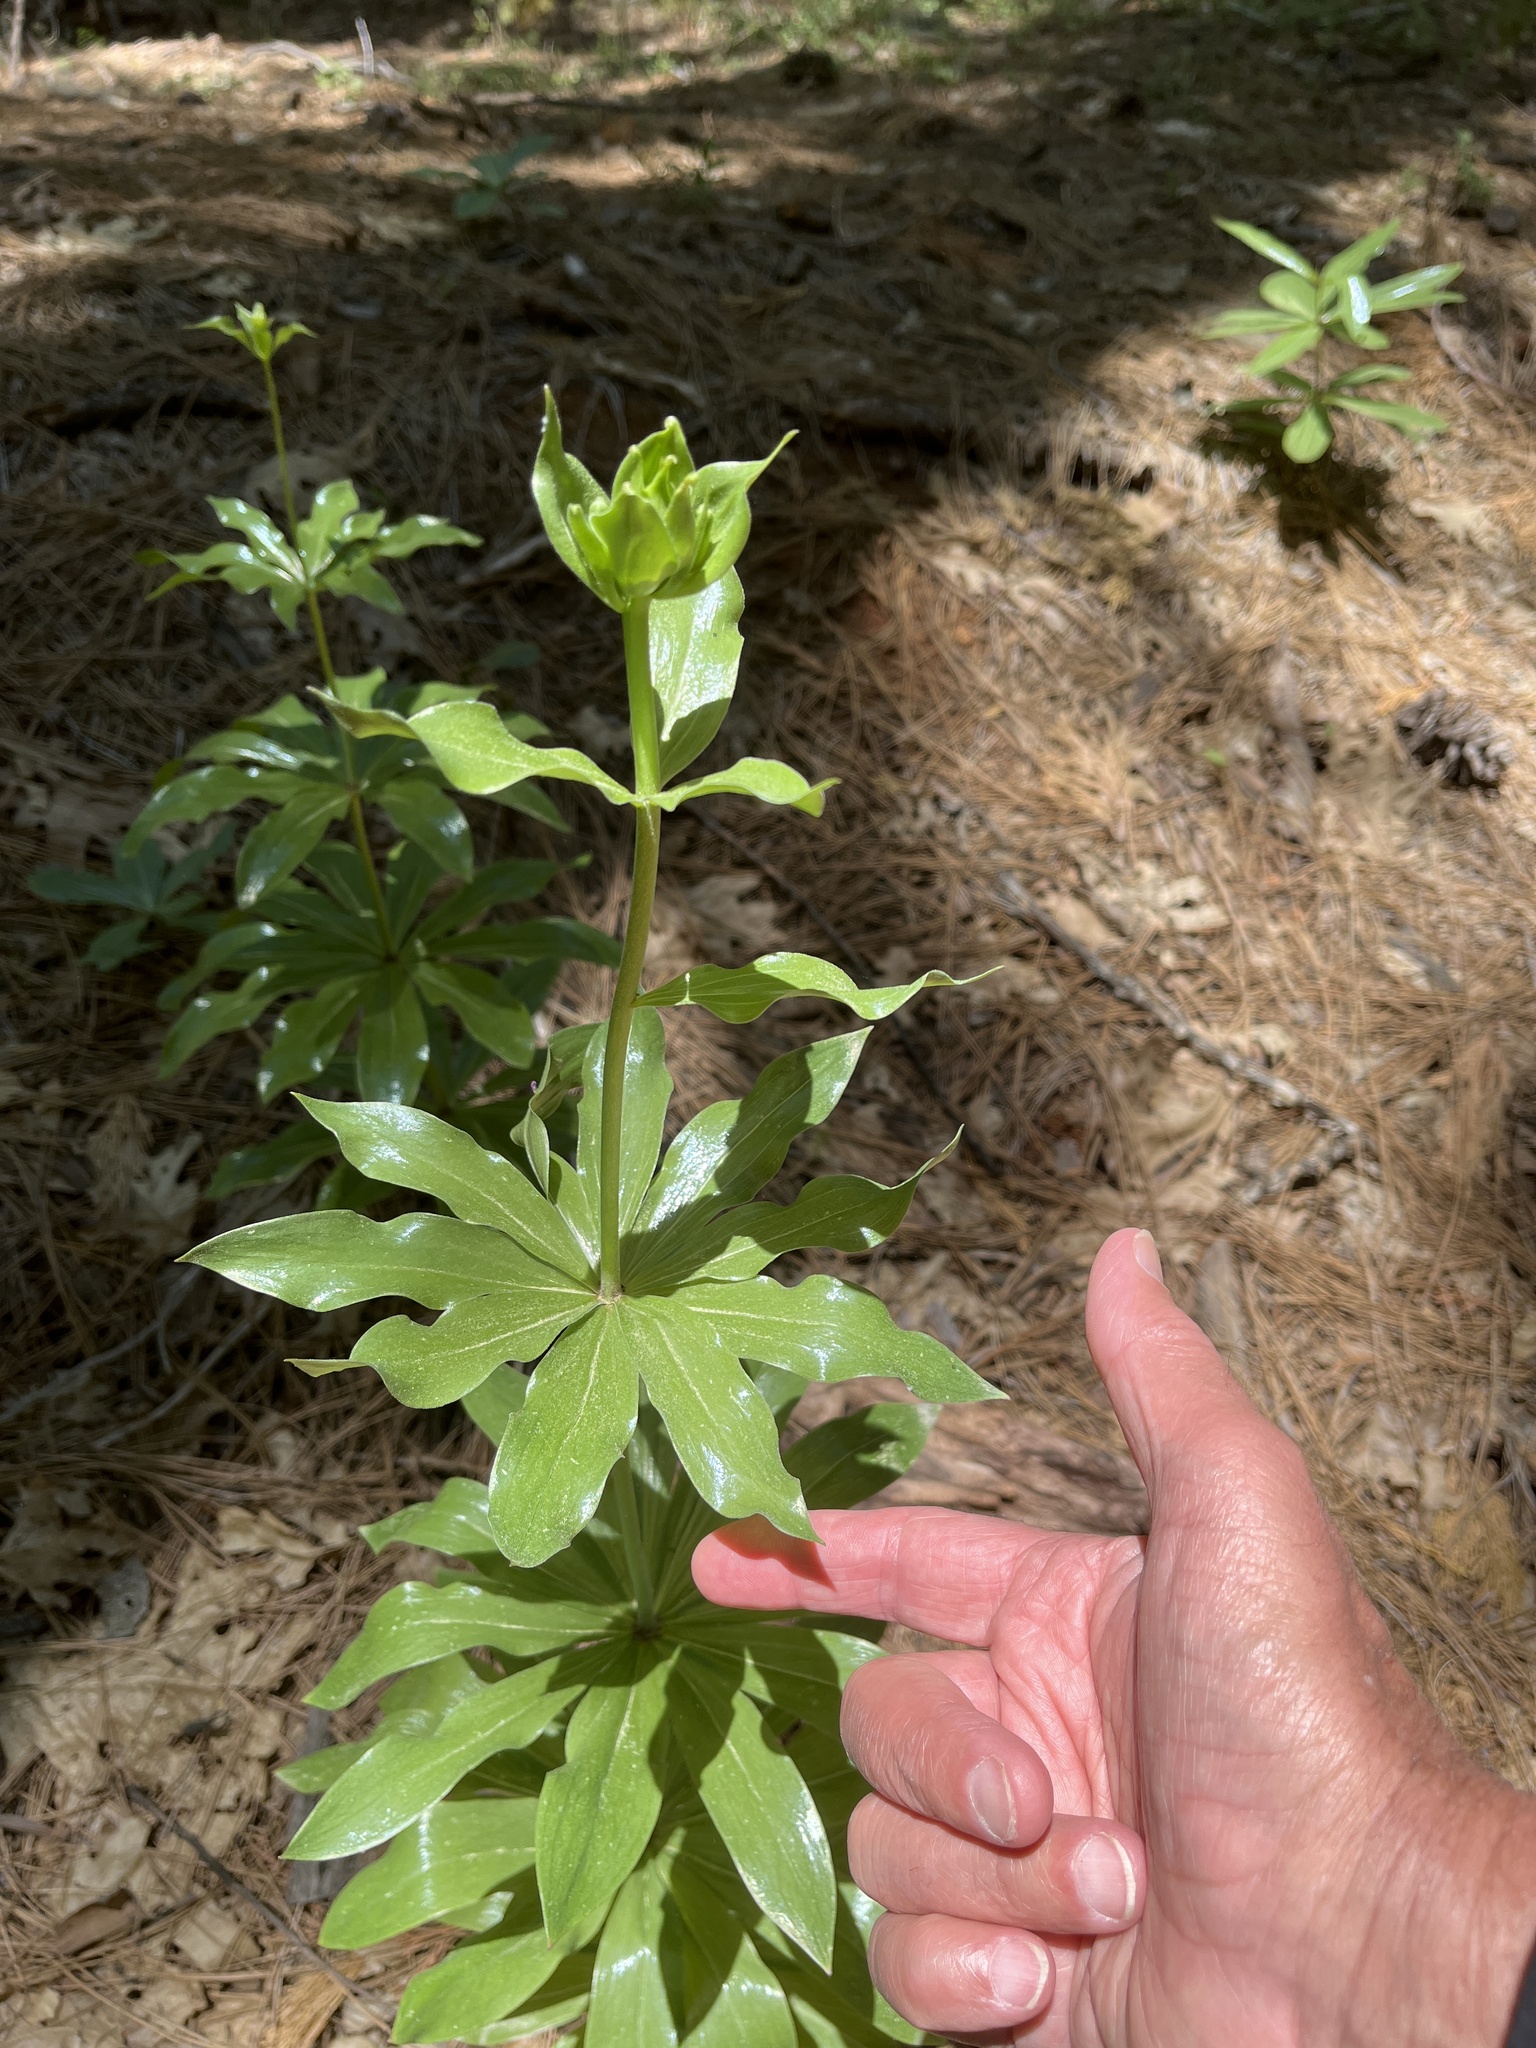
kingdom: Plantae
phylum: Tracheophyta
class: Liliopsida
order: Liliales
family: Liliaceae
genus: Lilium
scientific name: Lilium humboldtii
